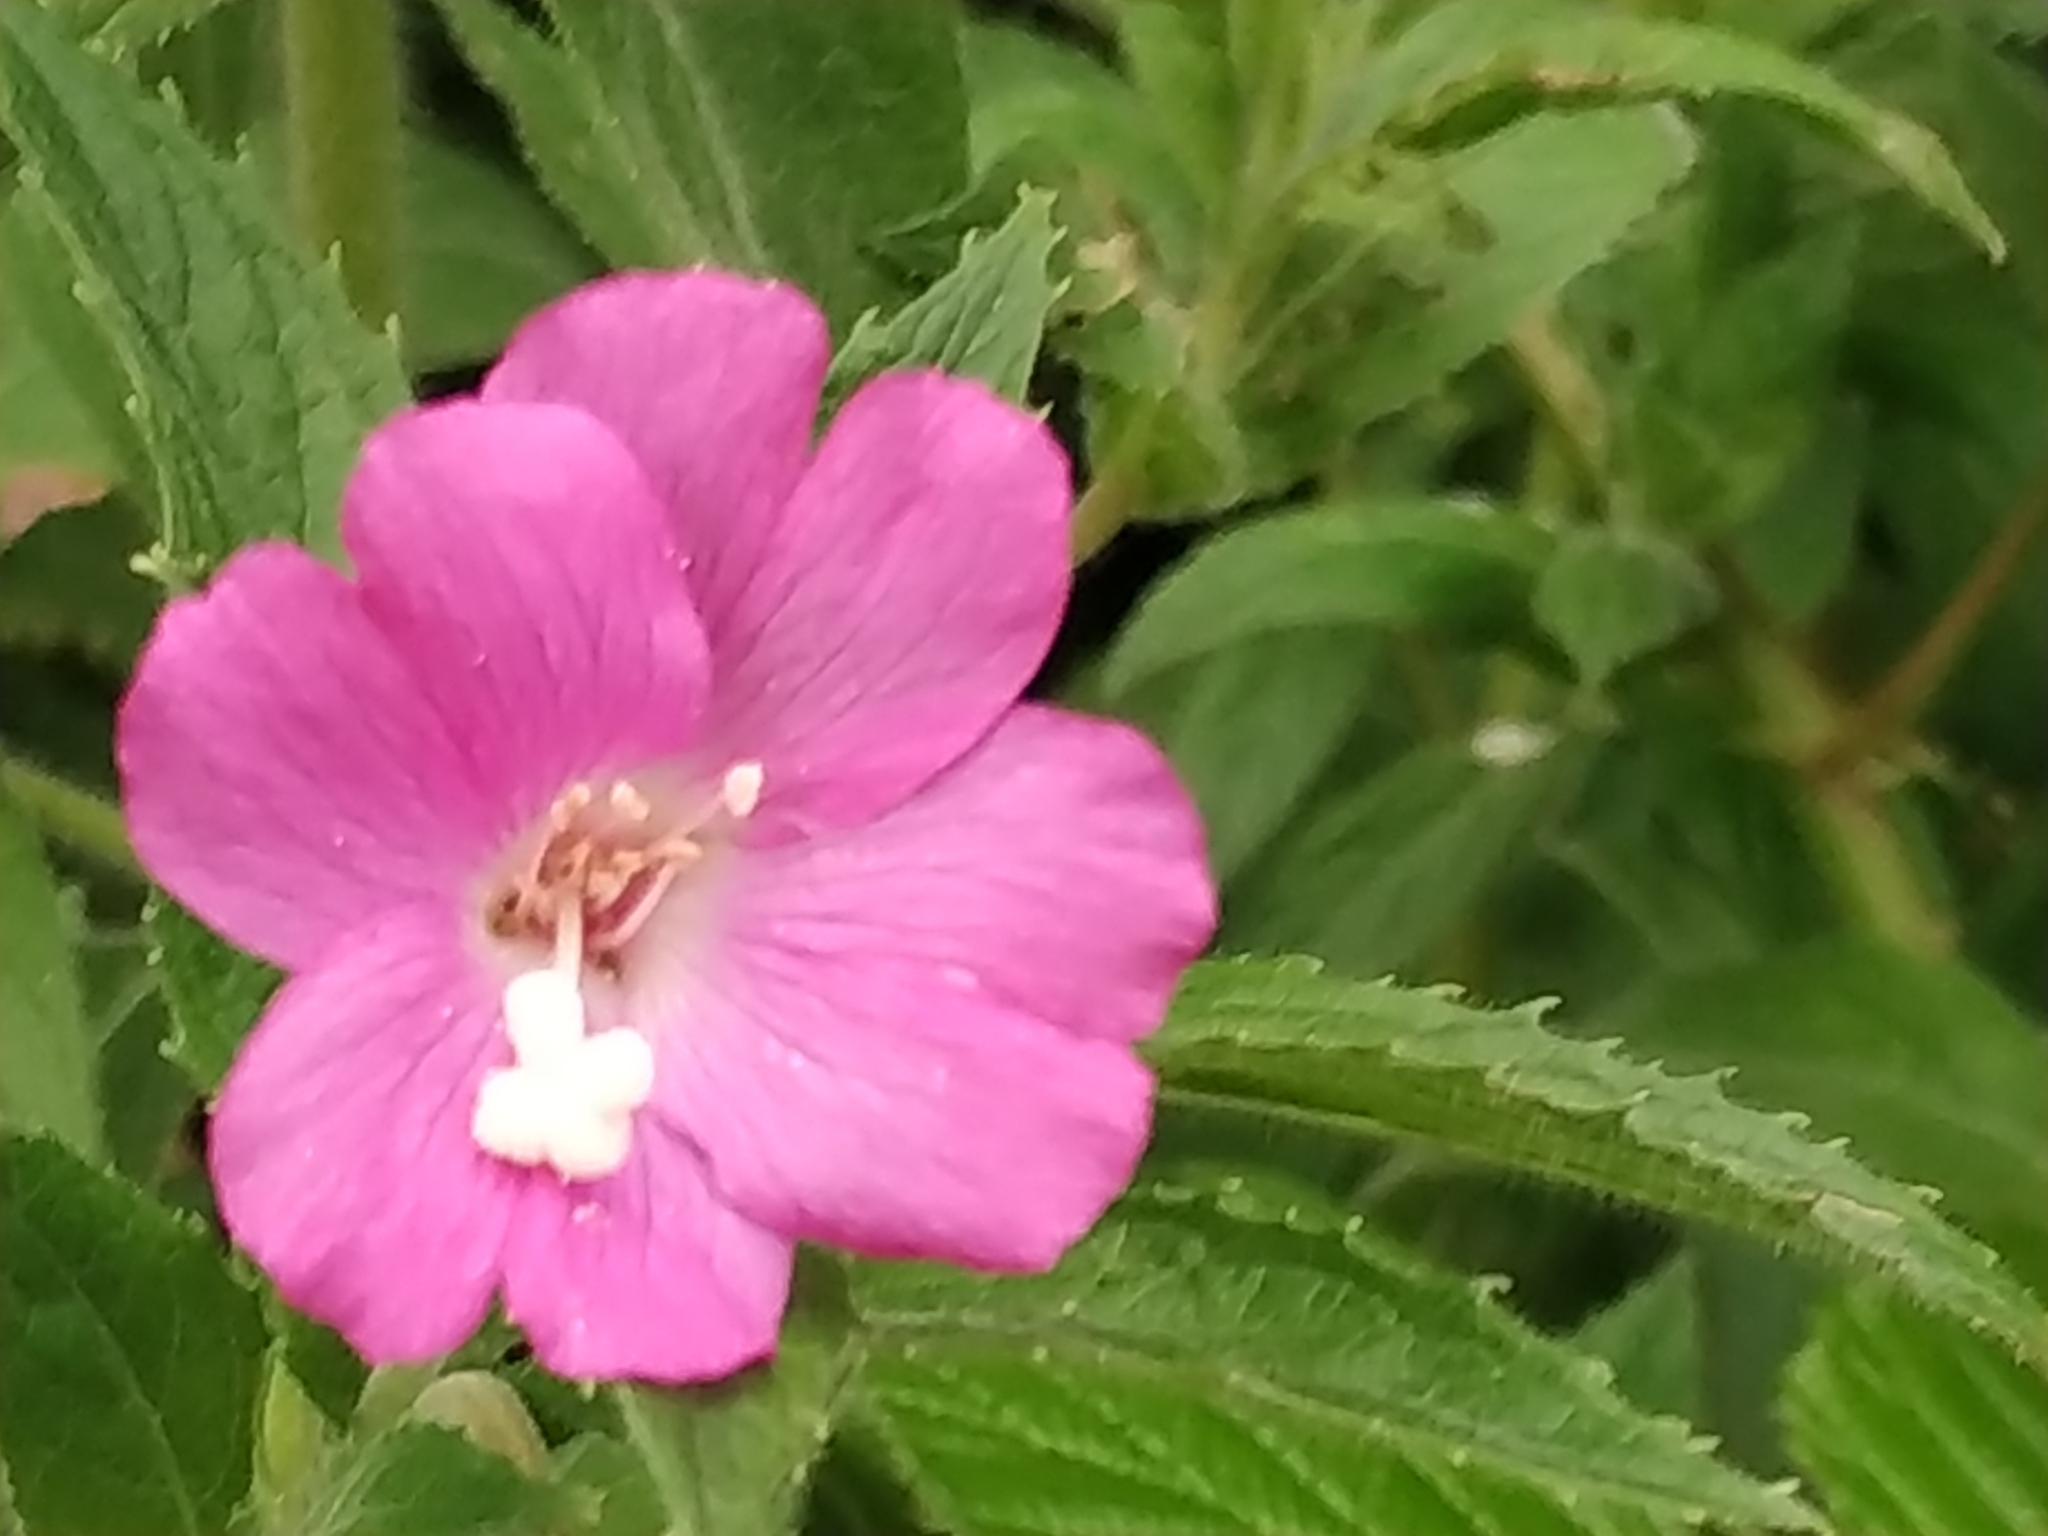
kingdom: Plantae
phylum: Tracheophyta
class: Magnoliopsida
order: Myrtales
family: Onagraceae
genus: Epilobium
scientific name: Epilobium hirsutum
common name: Great willowherb
